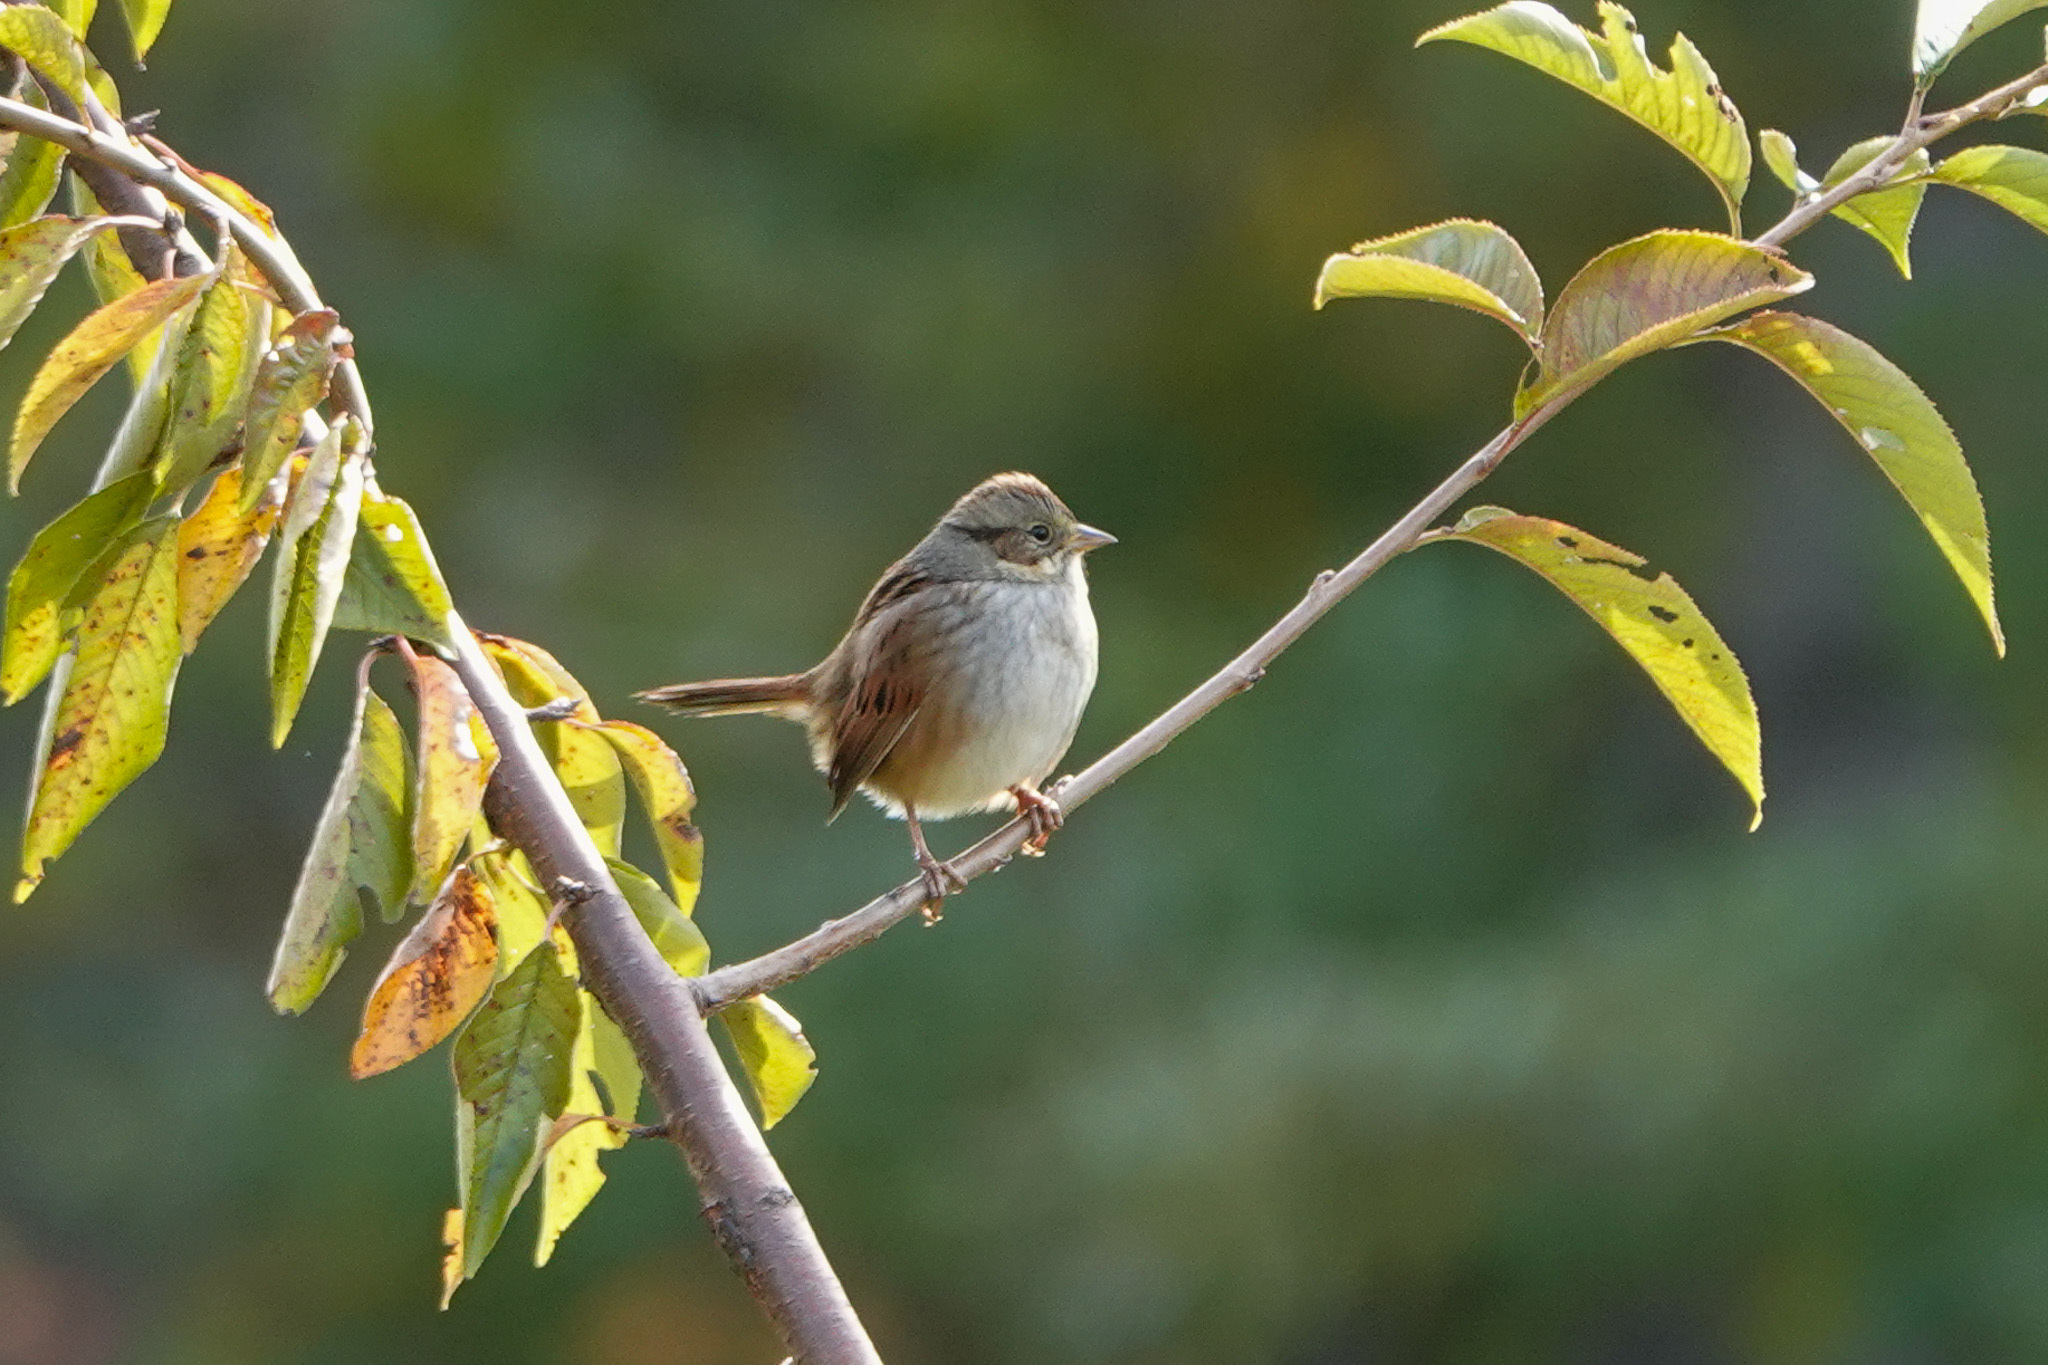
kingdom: Animalia
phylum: Chordata
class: Aves
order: Passeriformes
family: Passerellidae
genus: Melospiza
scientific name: Melospiza georgiana
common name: Swamp sparrow
